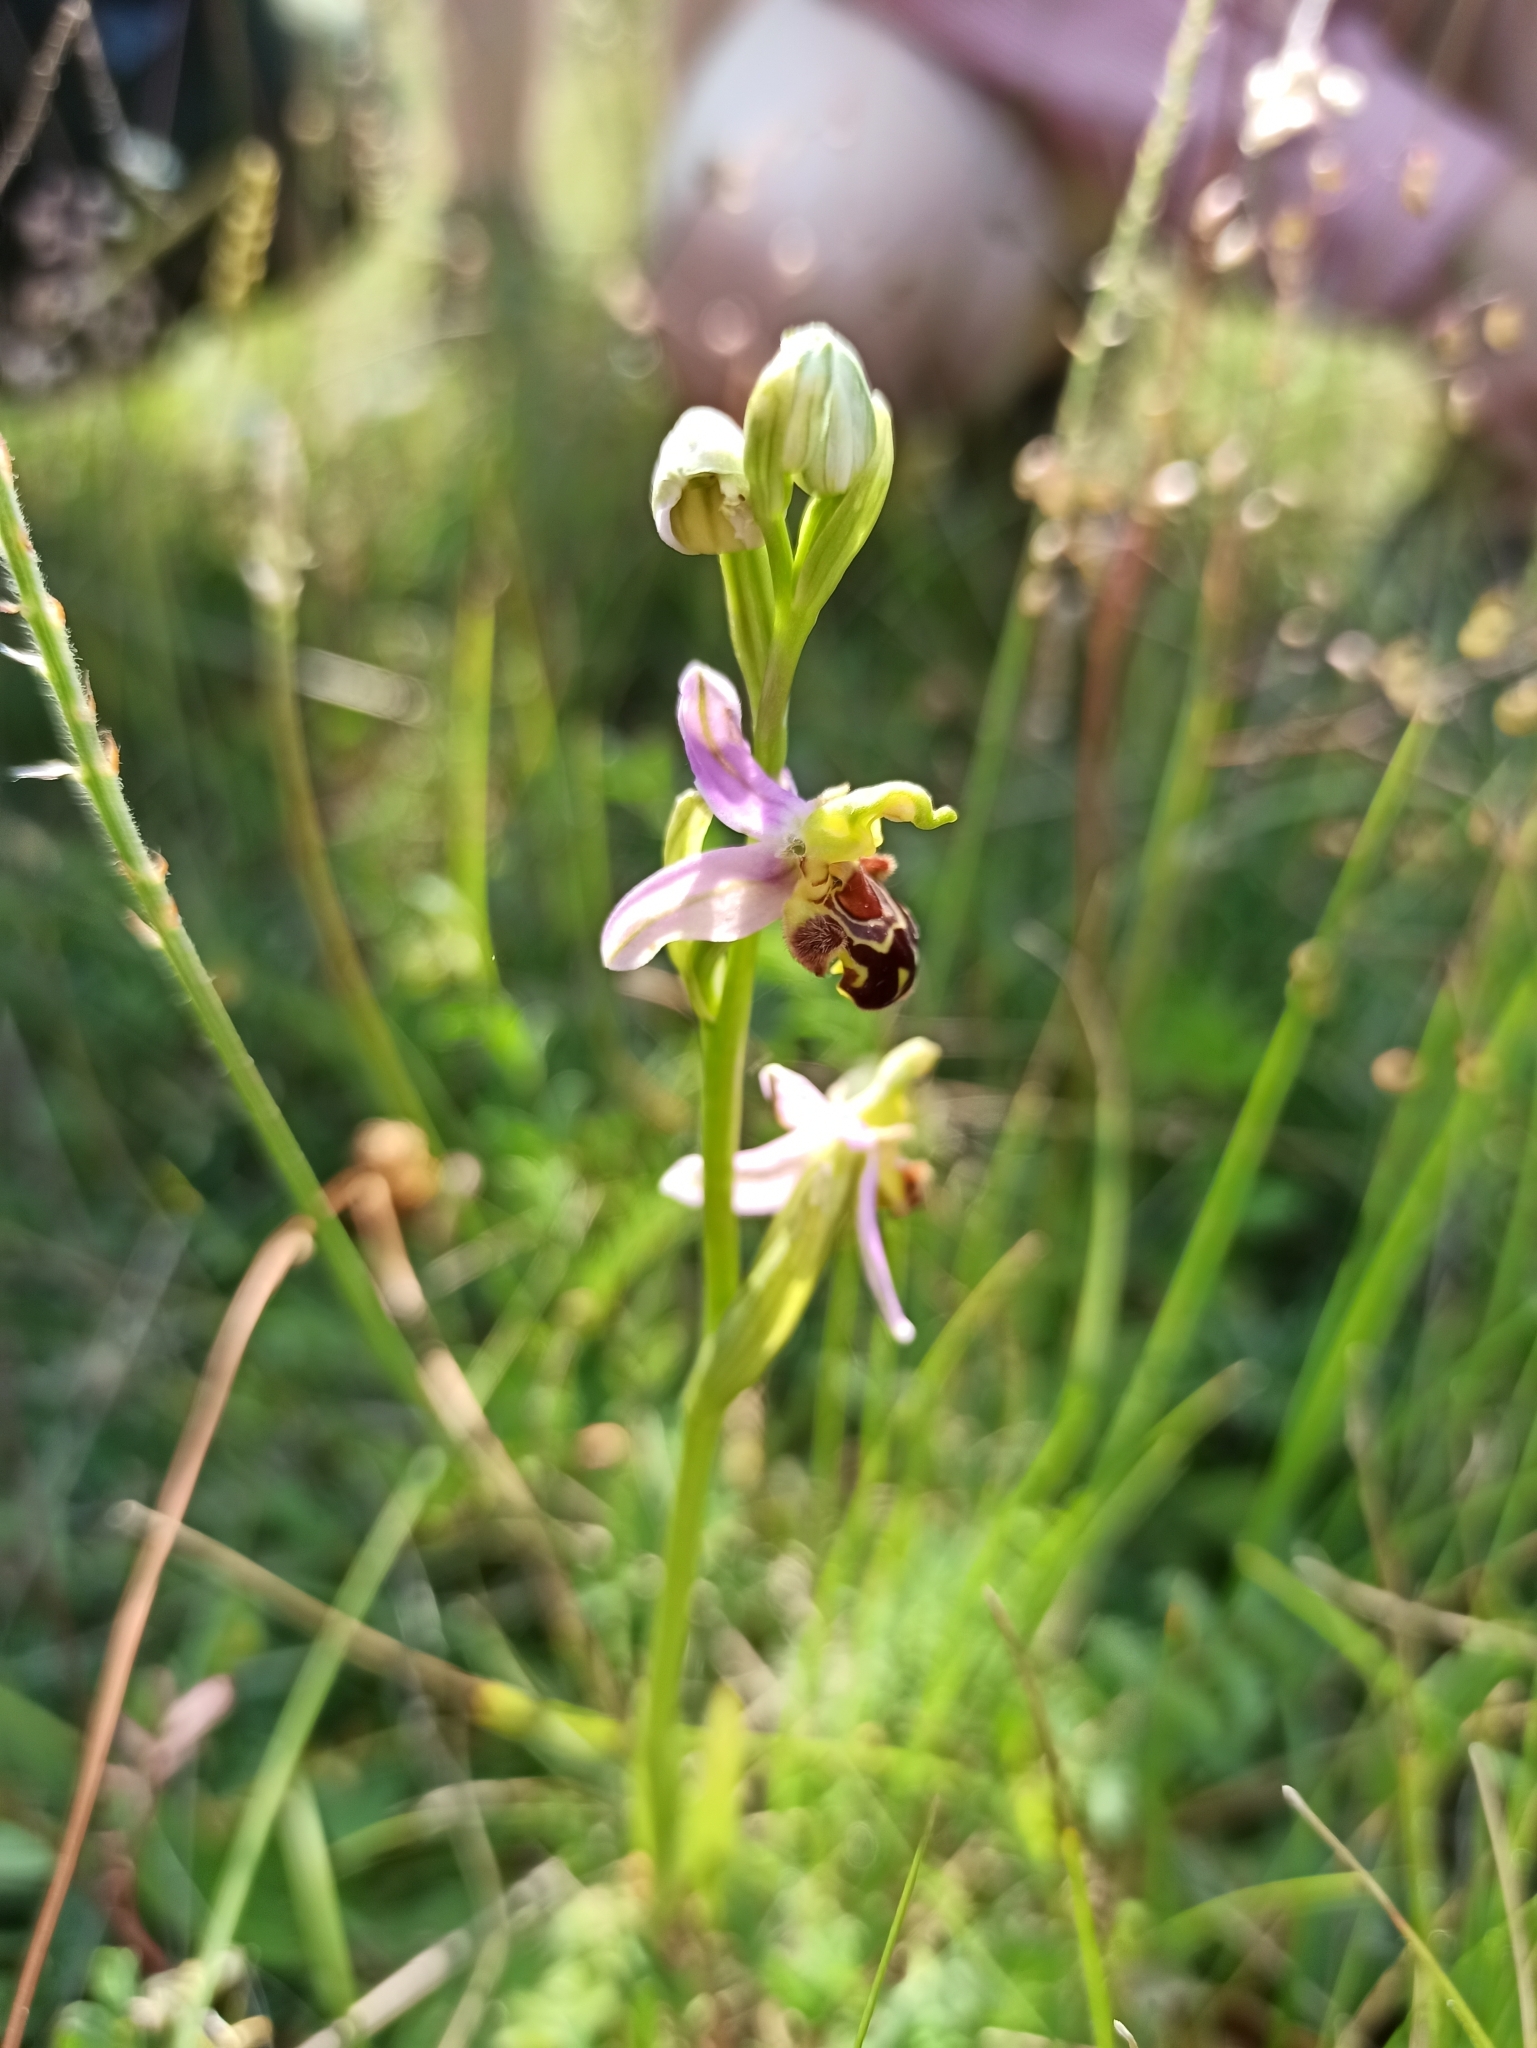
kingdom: Plantae
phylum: Tracheophyta
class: Liliopsida
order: Asparagales
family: Orchidaceae
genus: Ophrys
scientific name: Ophrys apifera
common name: Bee orchid
